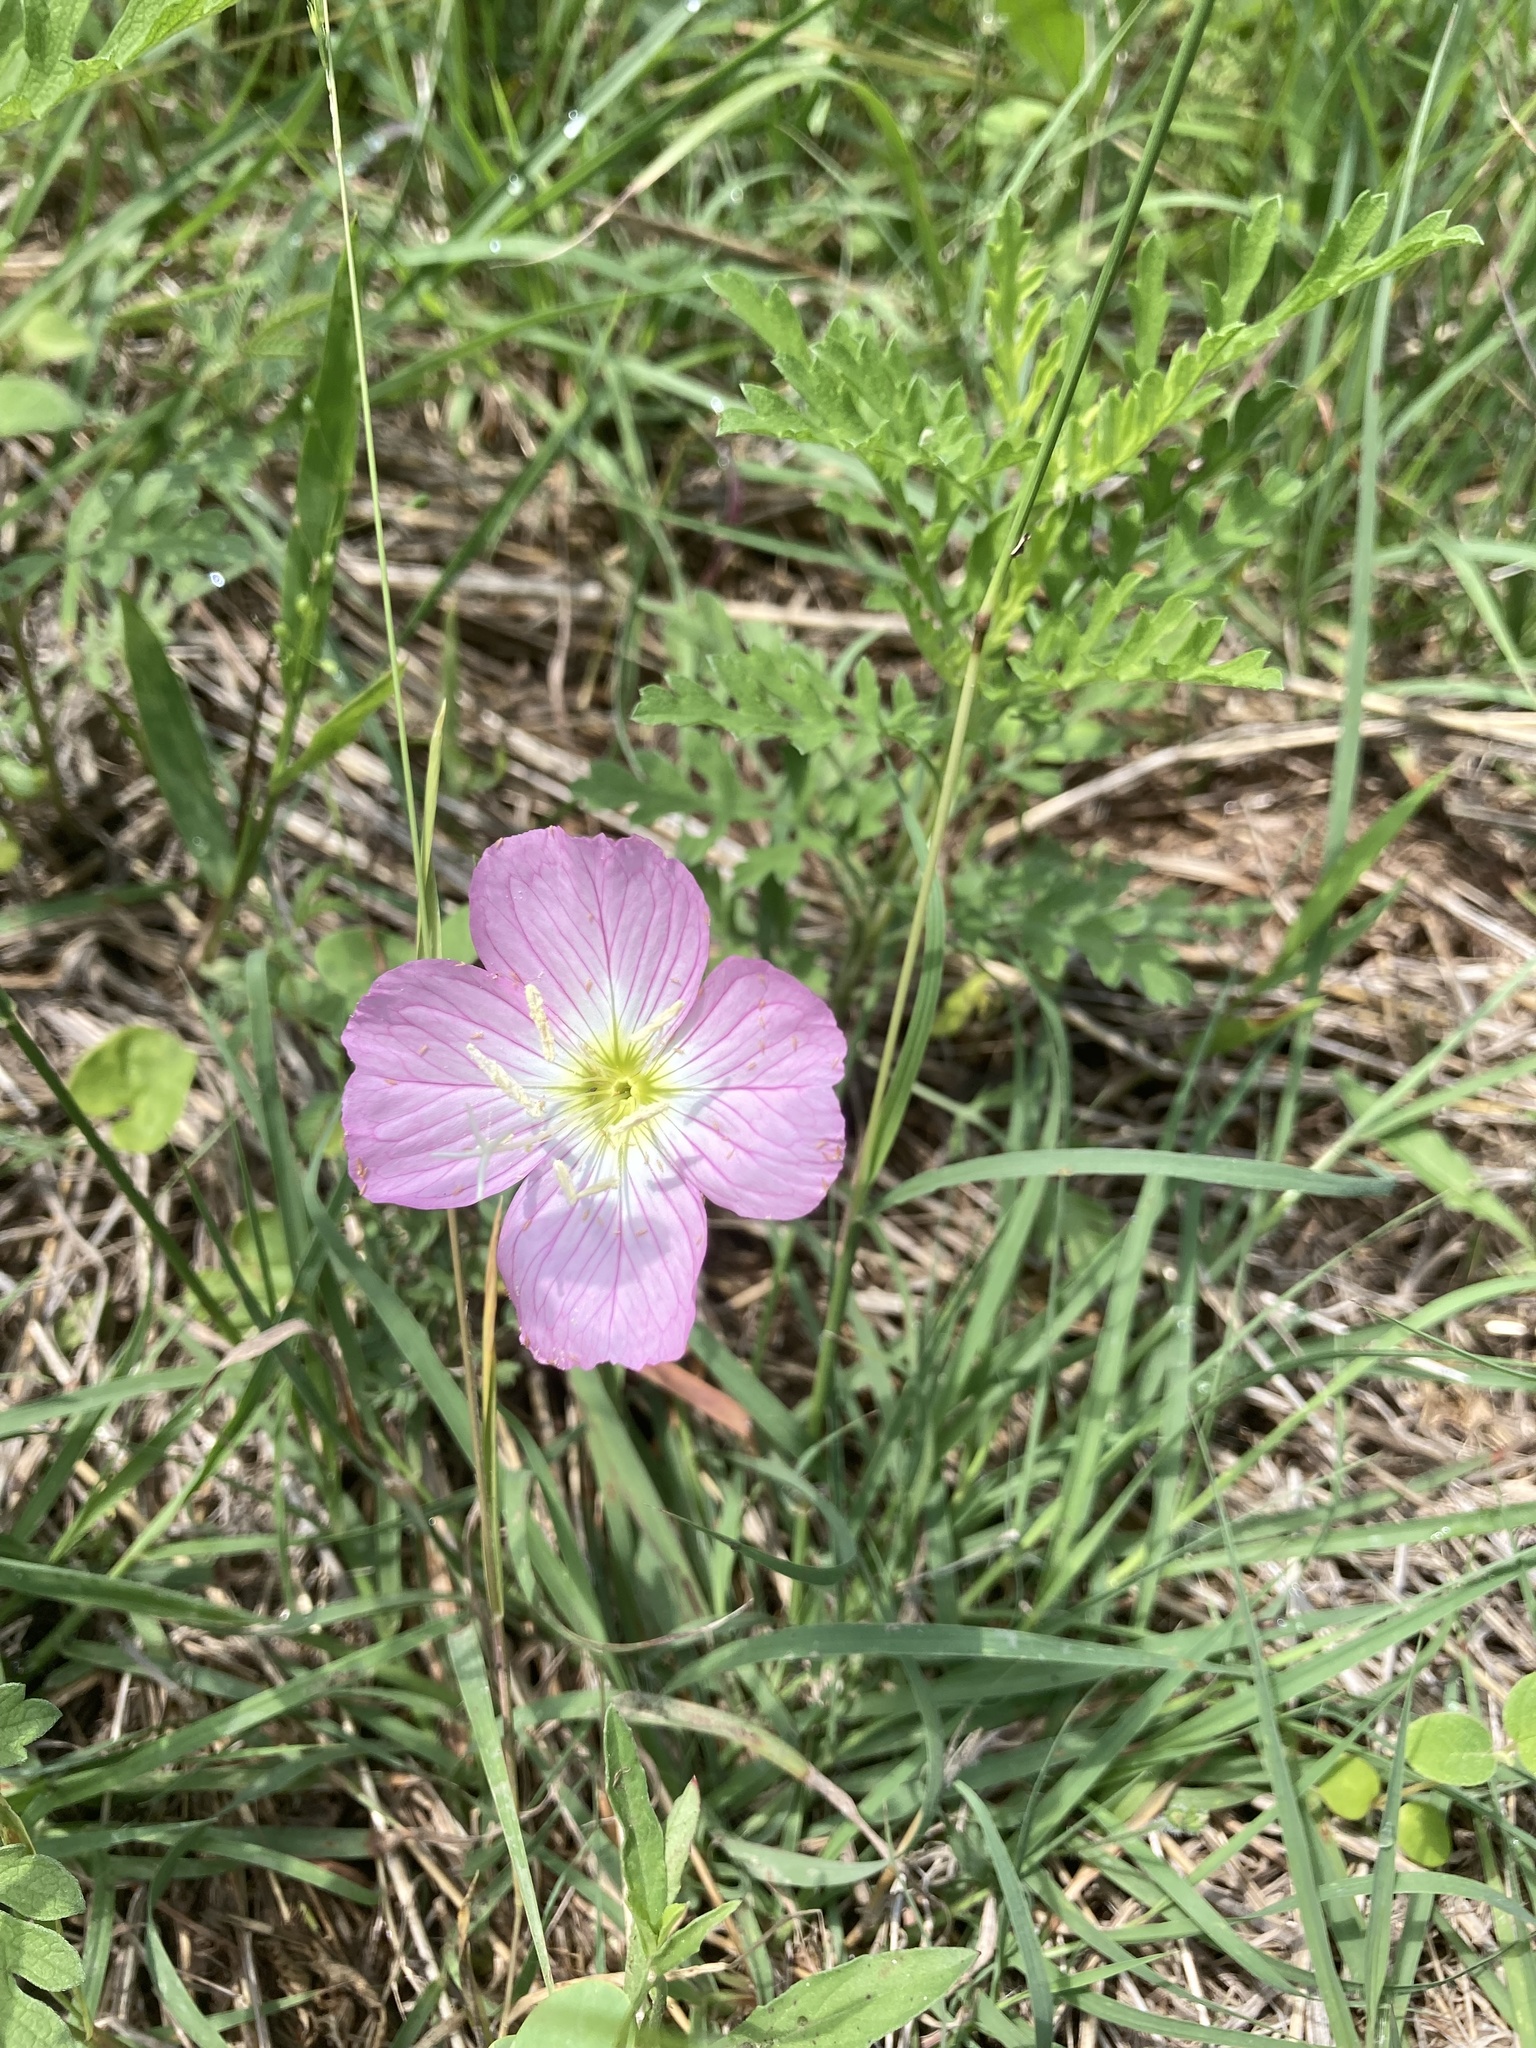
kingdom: Plantae
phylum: Tracheophyta
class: Magnoliopsida
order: Myrtales
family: Onagraceae
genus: Oenothera
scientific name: Oenothera speciosa
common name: White evening-primrose
